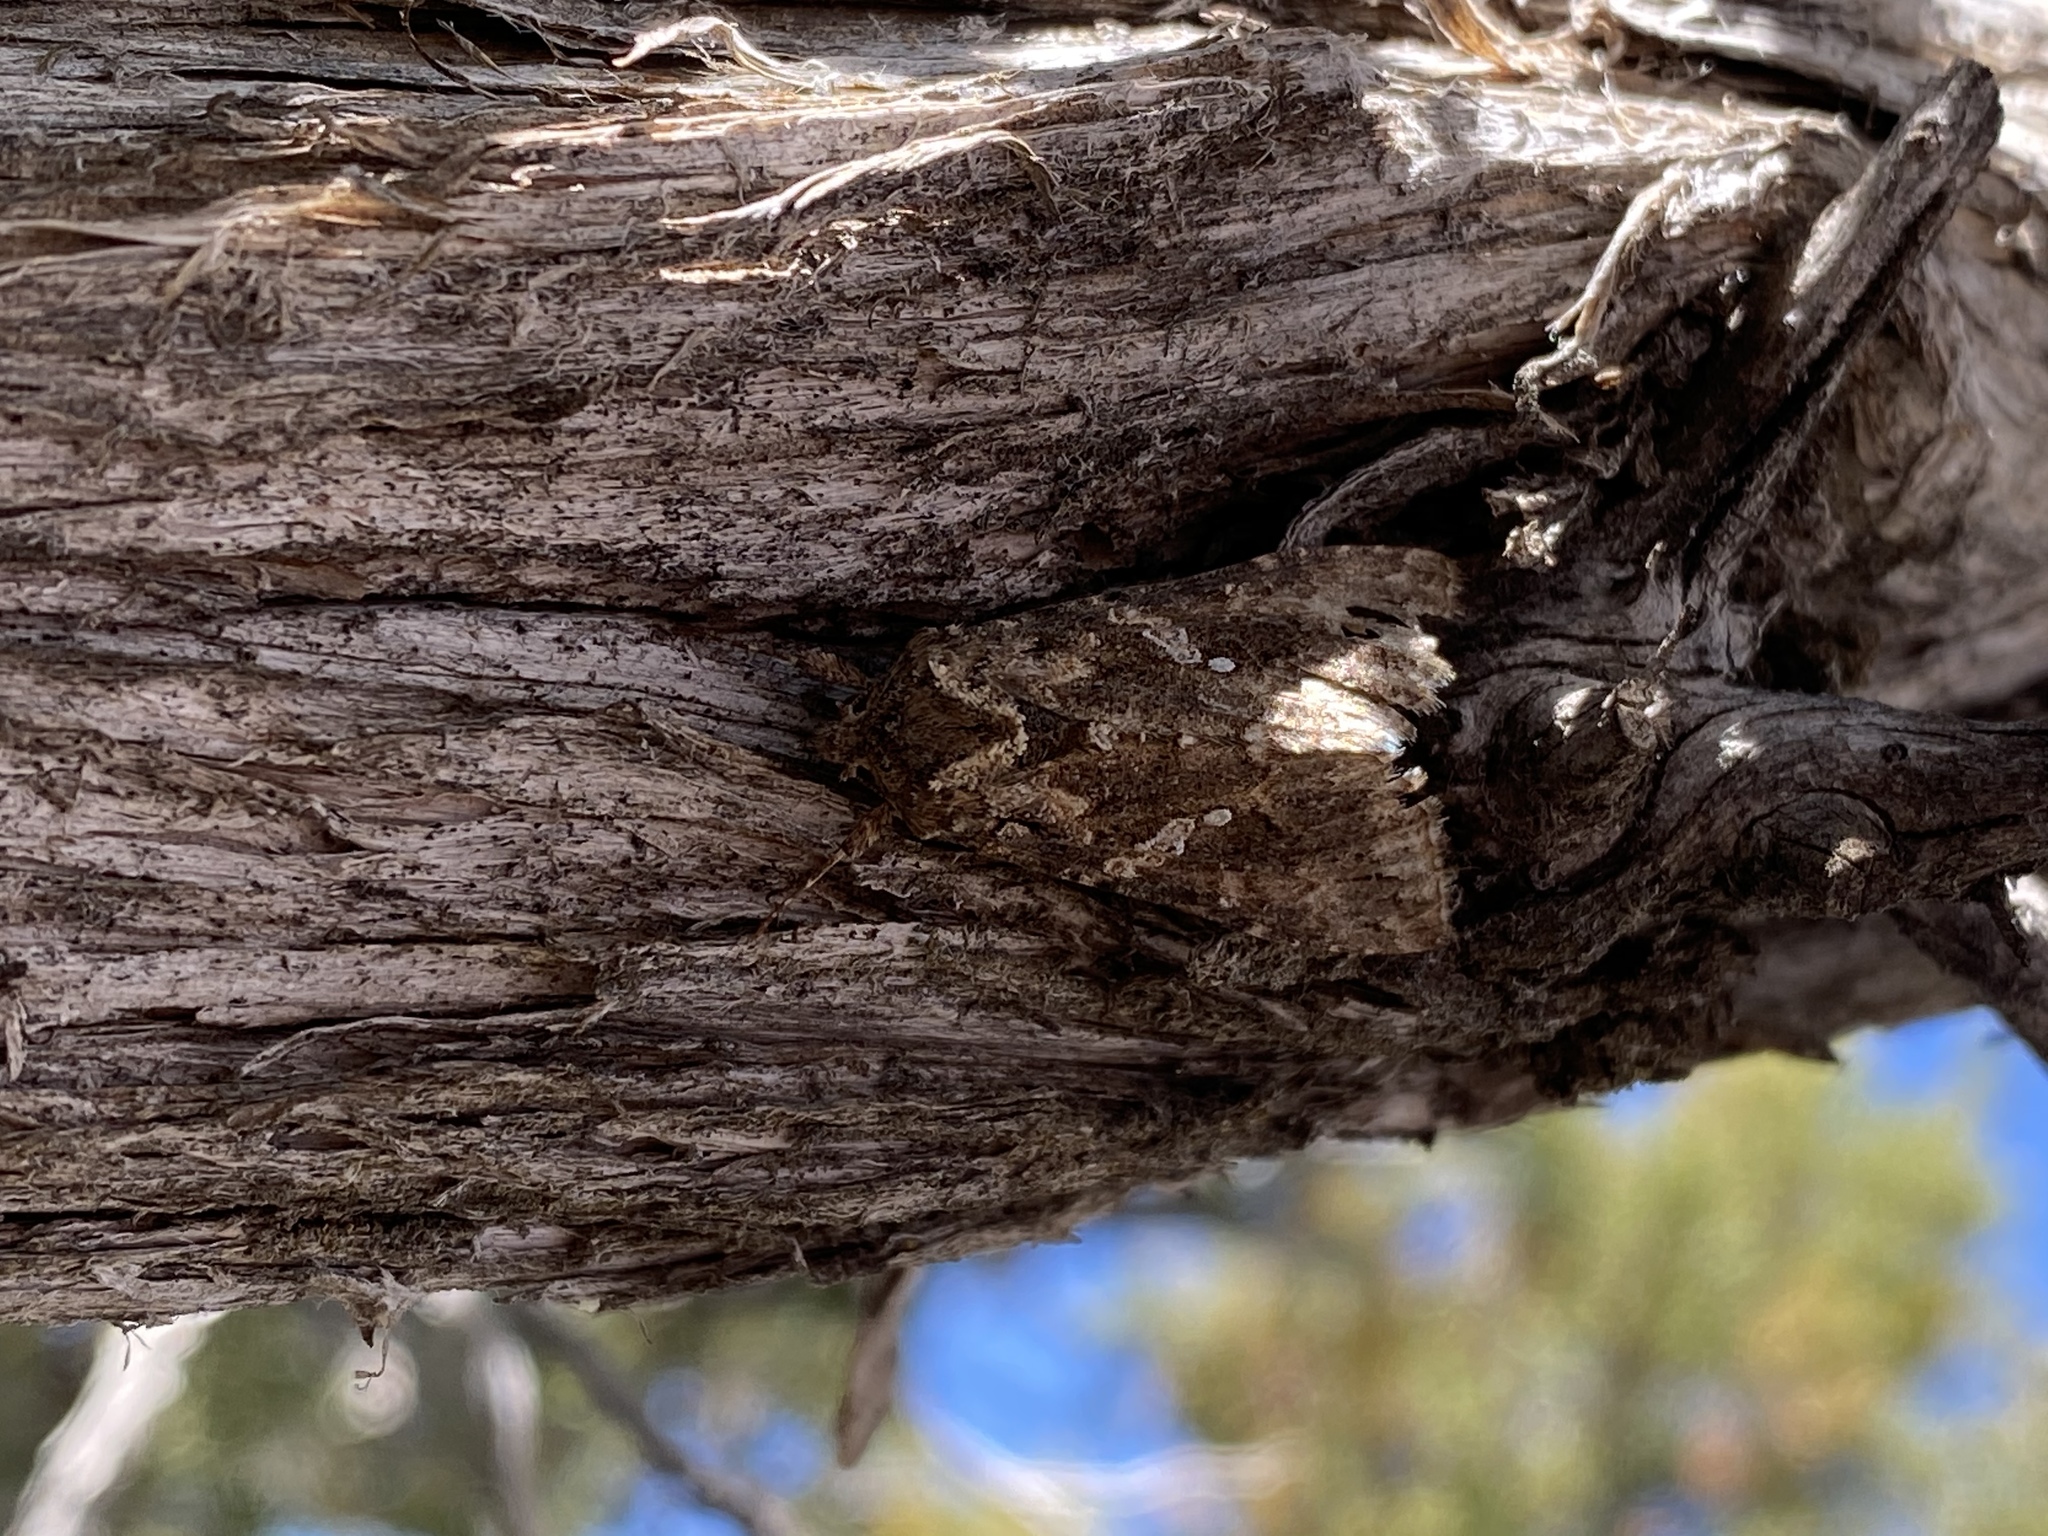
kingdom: Animalia
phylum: Arthropoda
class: Insecta
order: Lepidoptera
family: Noctuidae
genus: Trichoplusia
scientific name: Trichoplusia ni
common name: Ni moth
